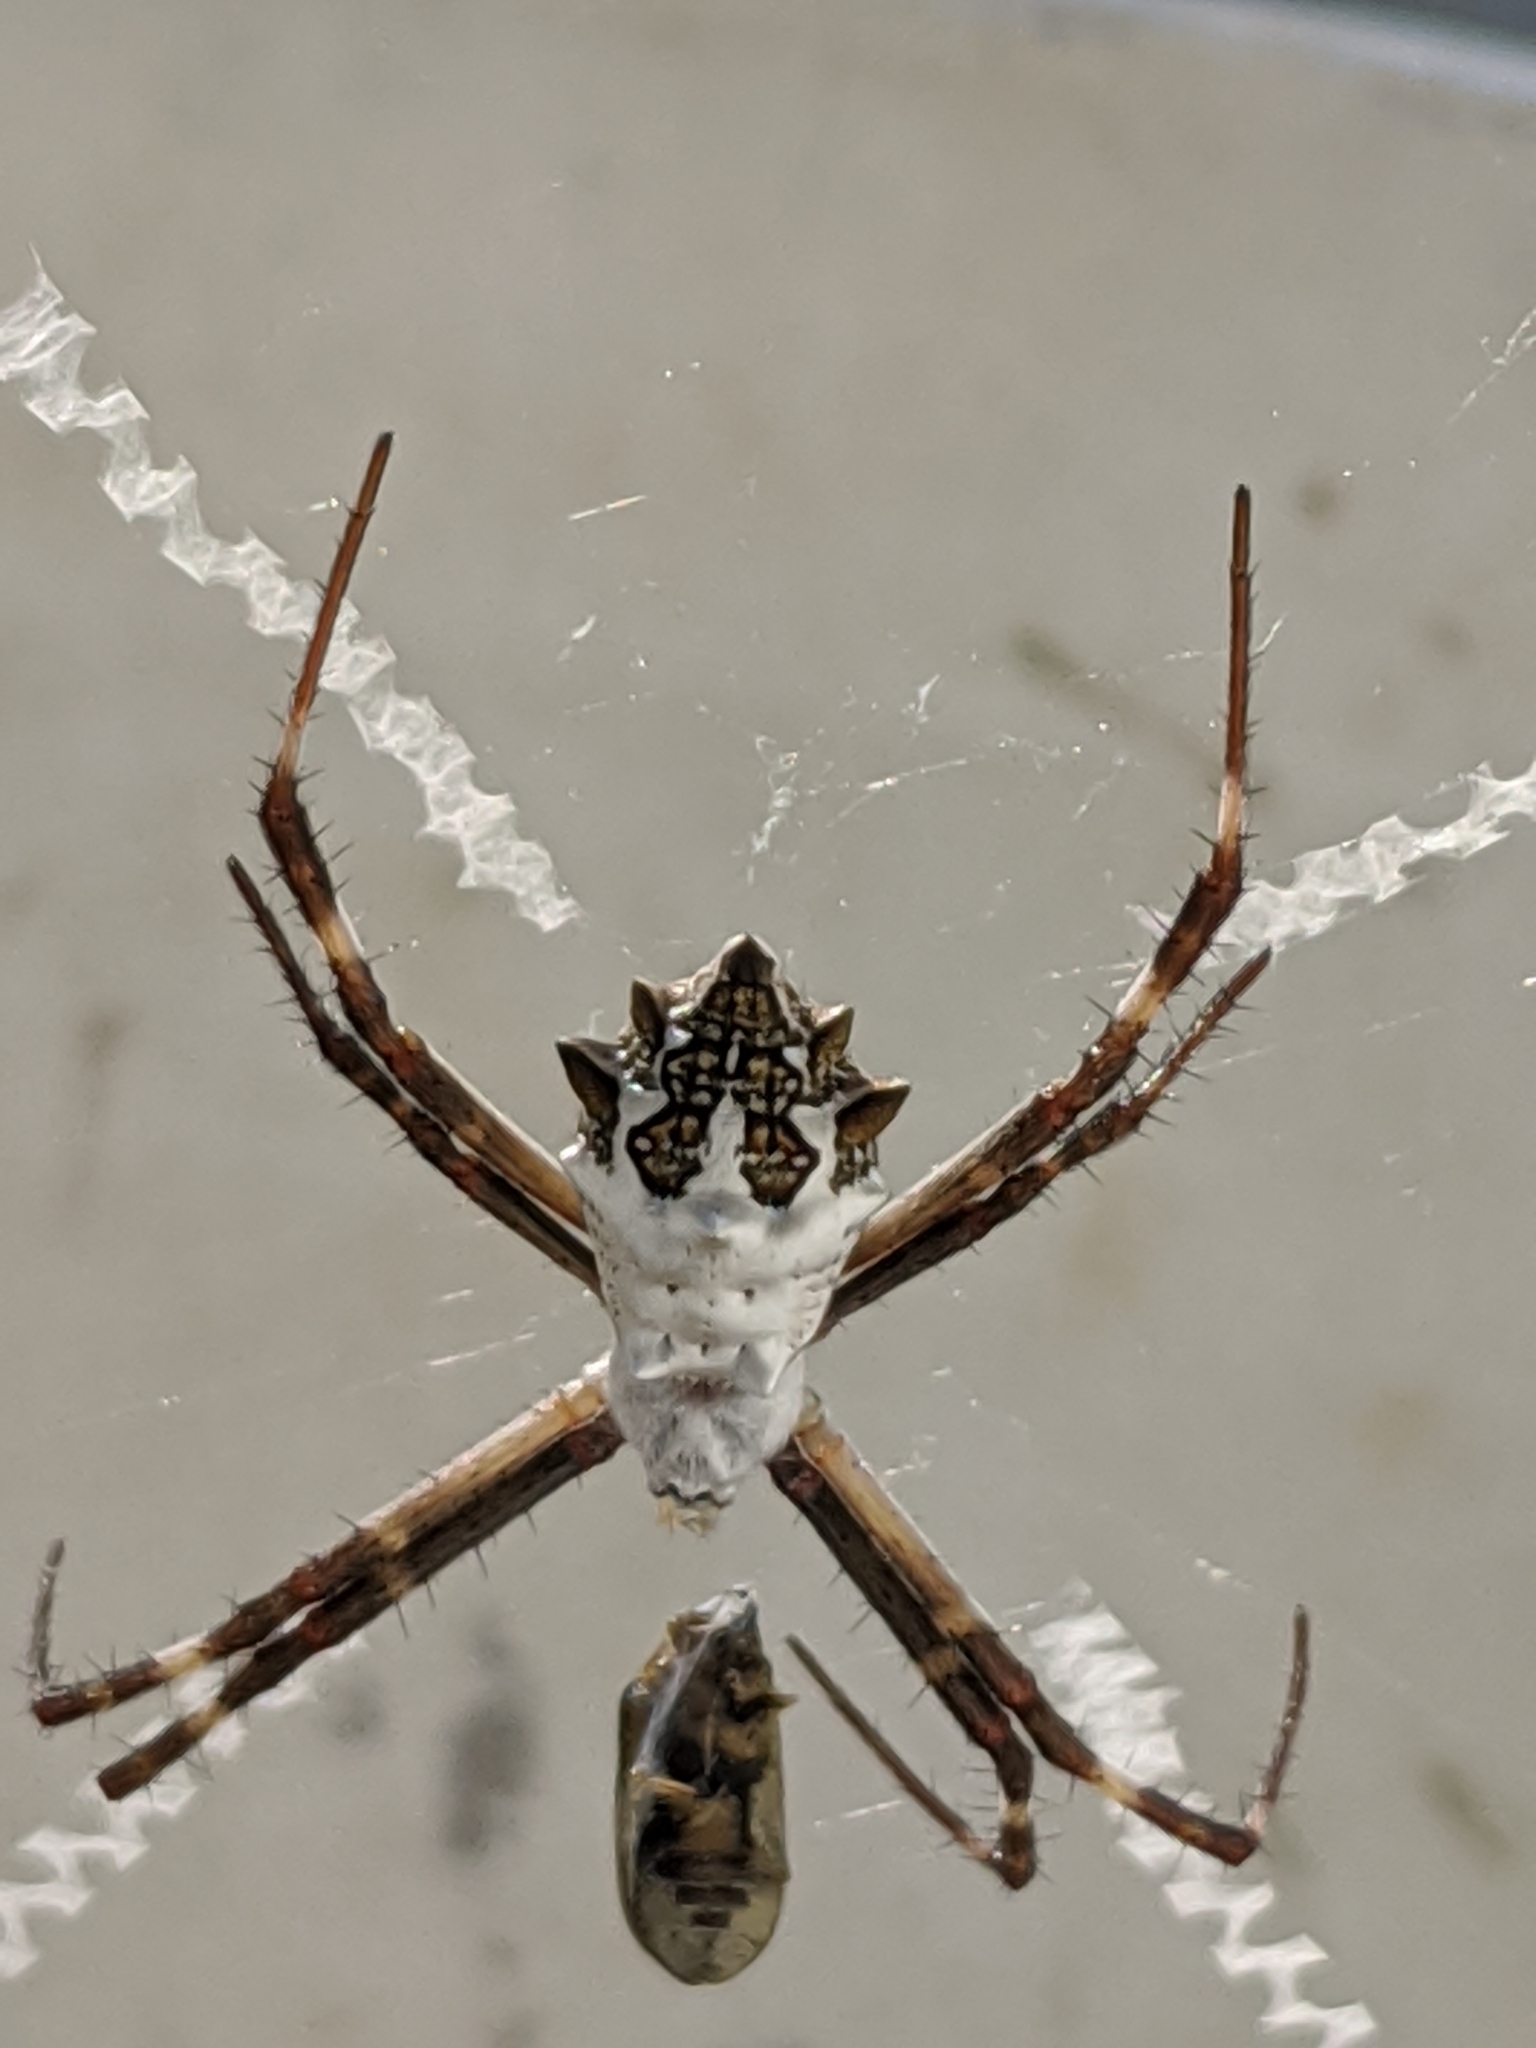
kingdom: Animalia
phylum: Arthropoda
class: Arachnida
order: Araneae
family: Araneidae
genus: Argiope
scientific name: Argiope argentata
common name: Orb weavers
